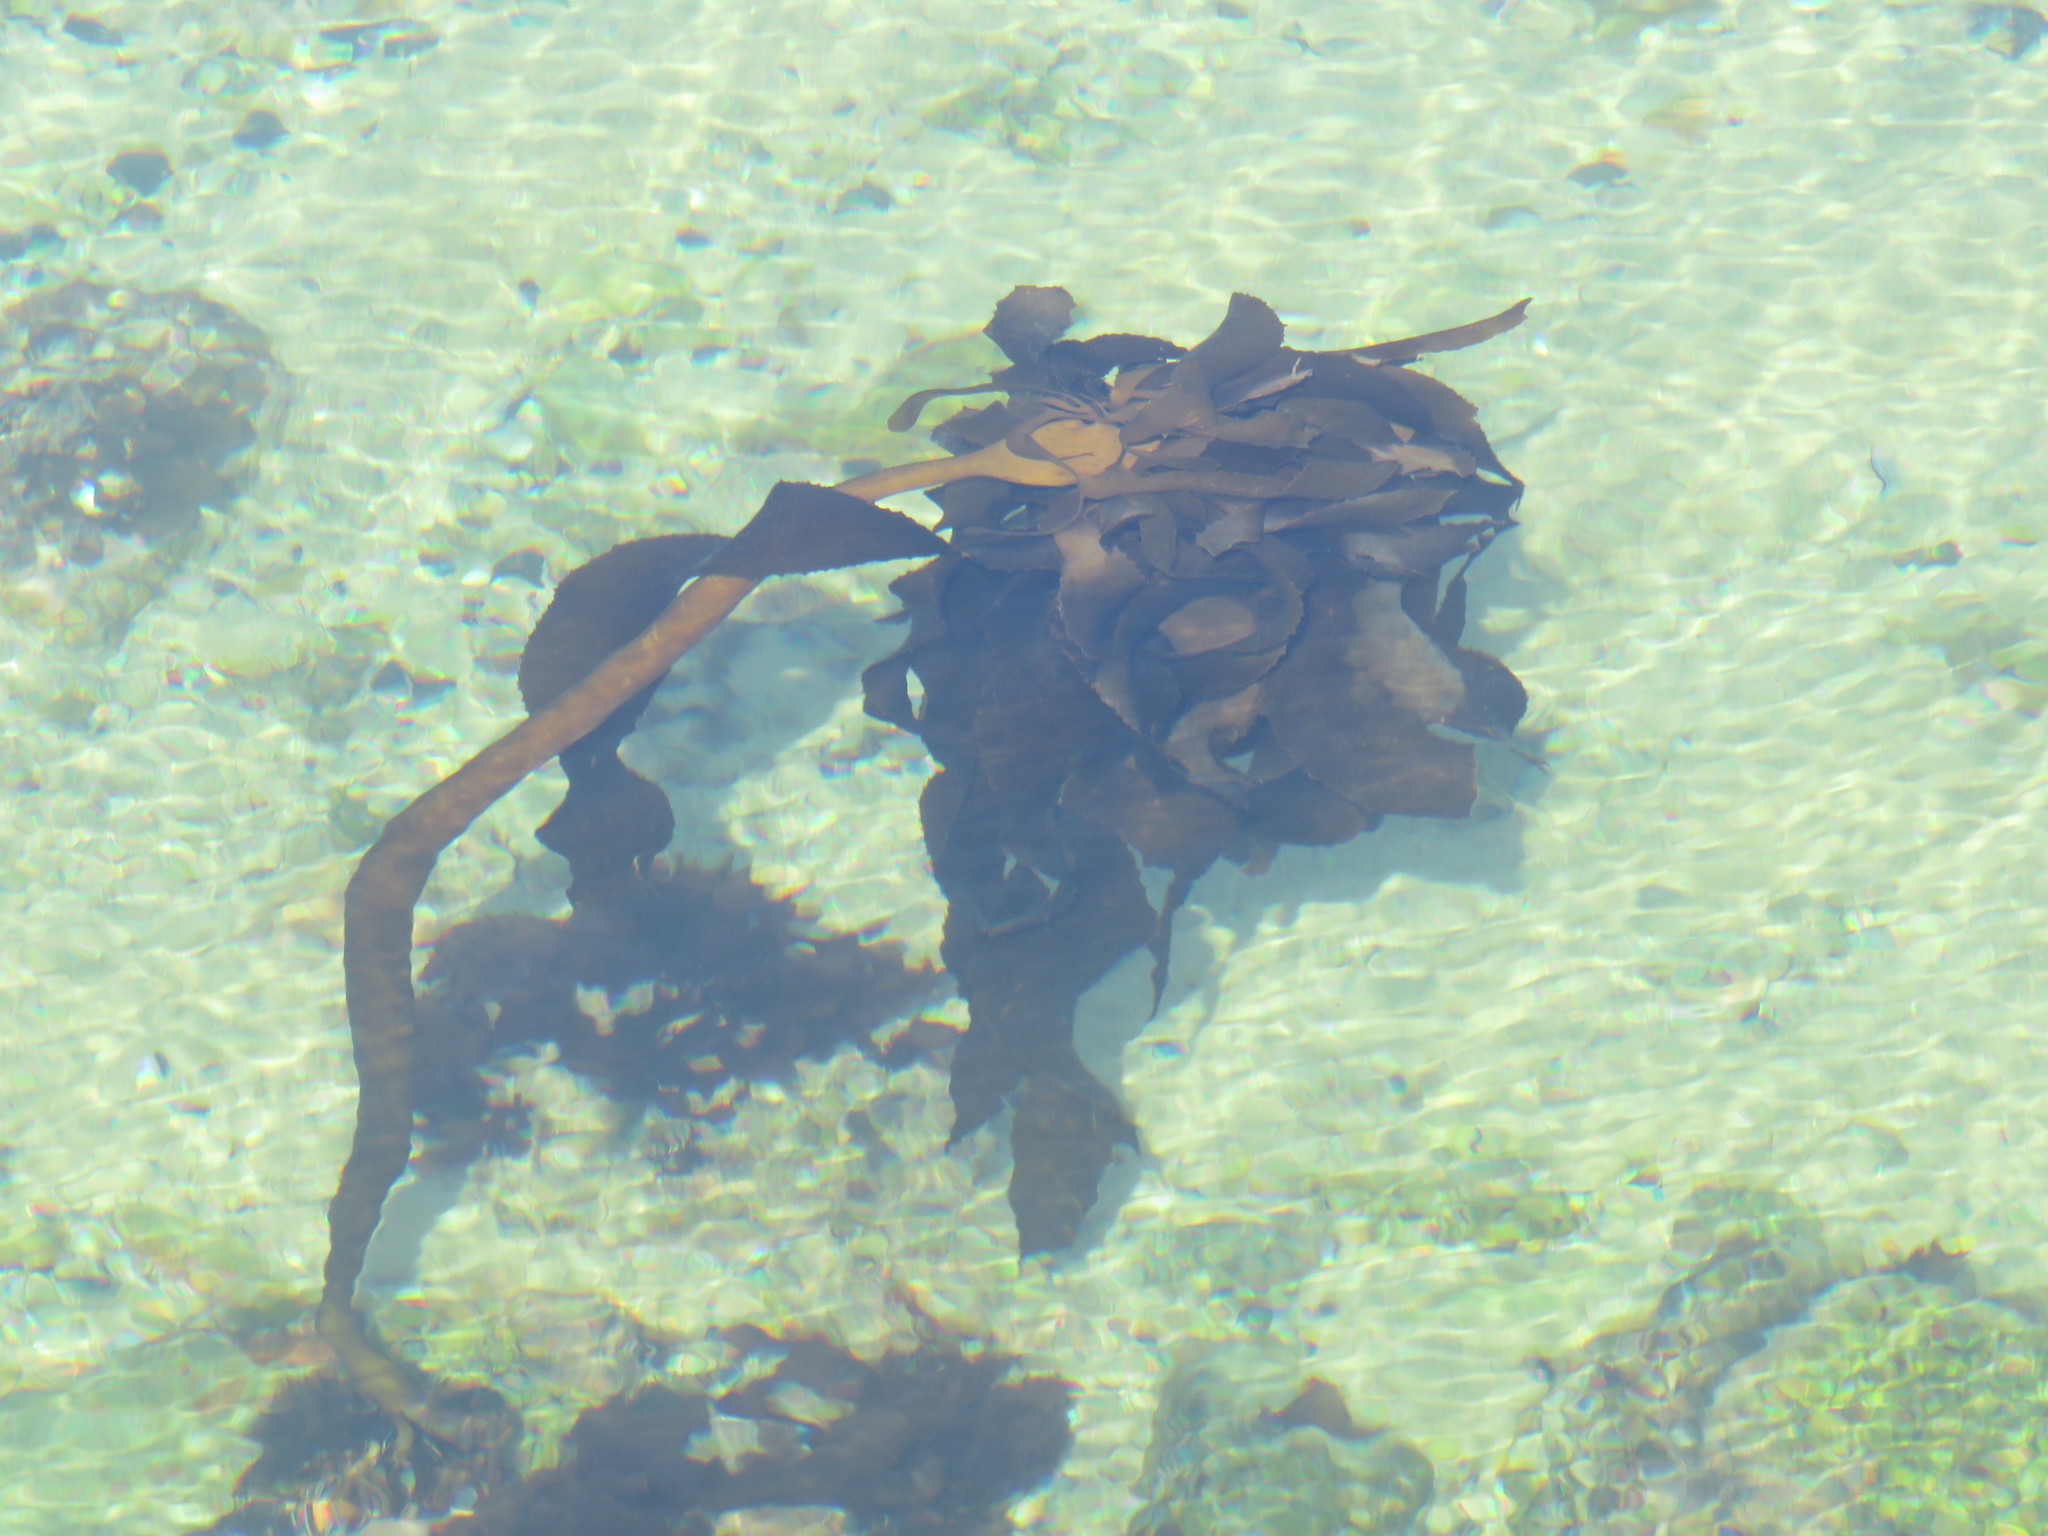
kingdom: Chromista
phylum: Ochrophyta
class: Phaeophyceae
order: Laminariales
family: Lessoniaceae
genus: Ecklonia
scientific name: Ecklonia
